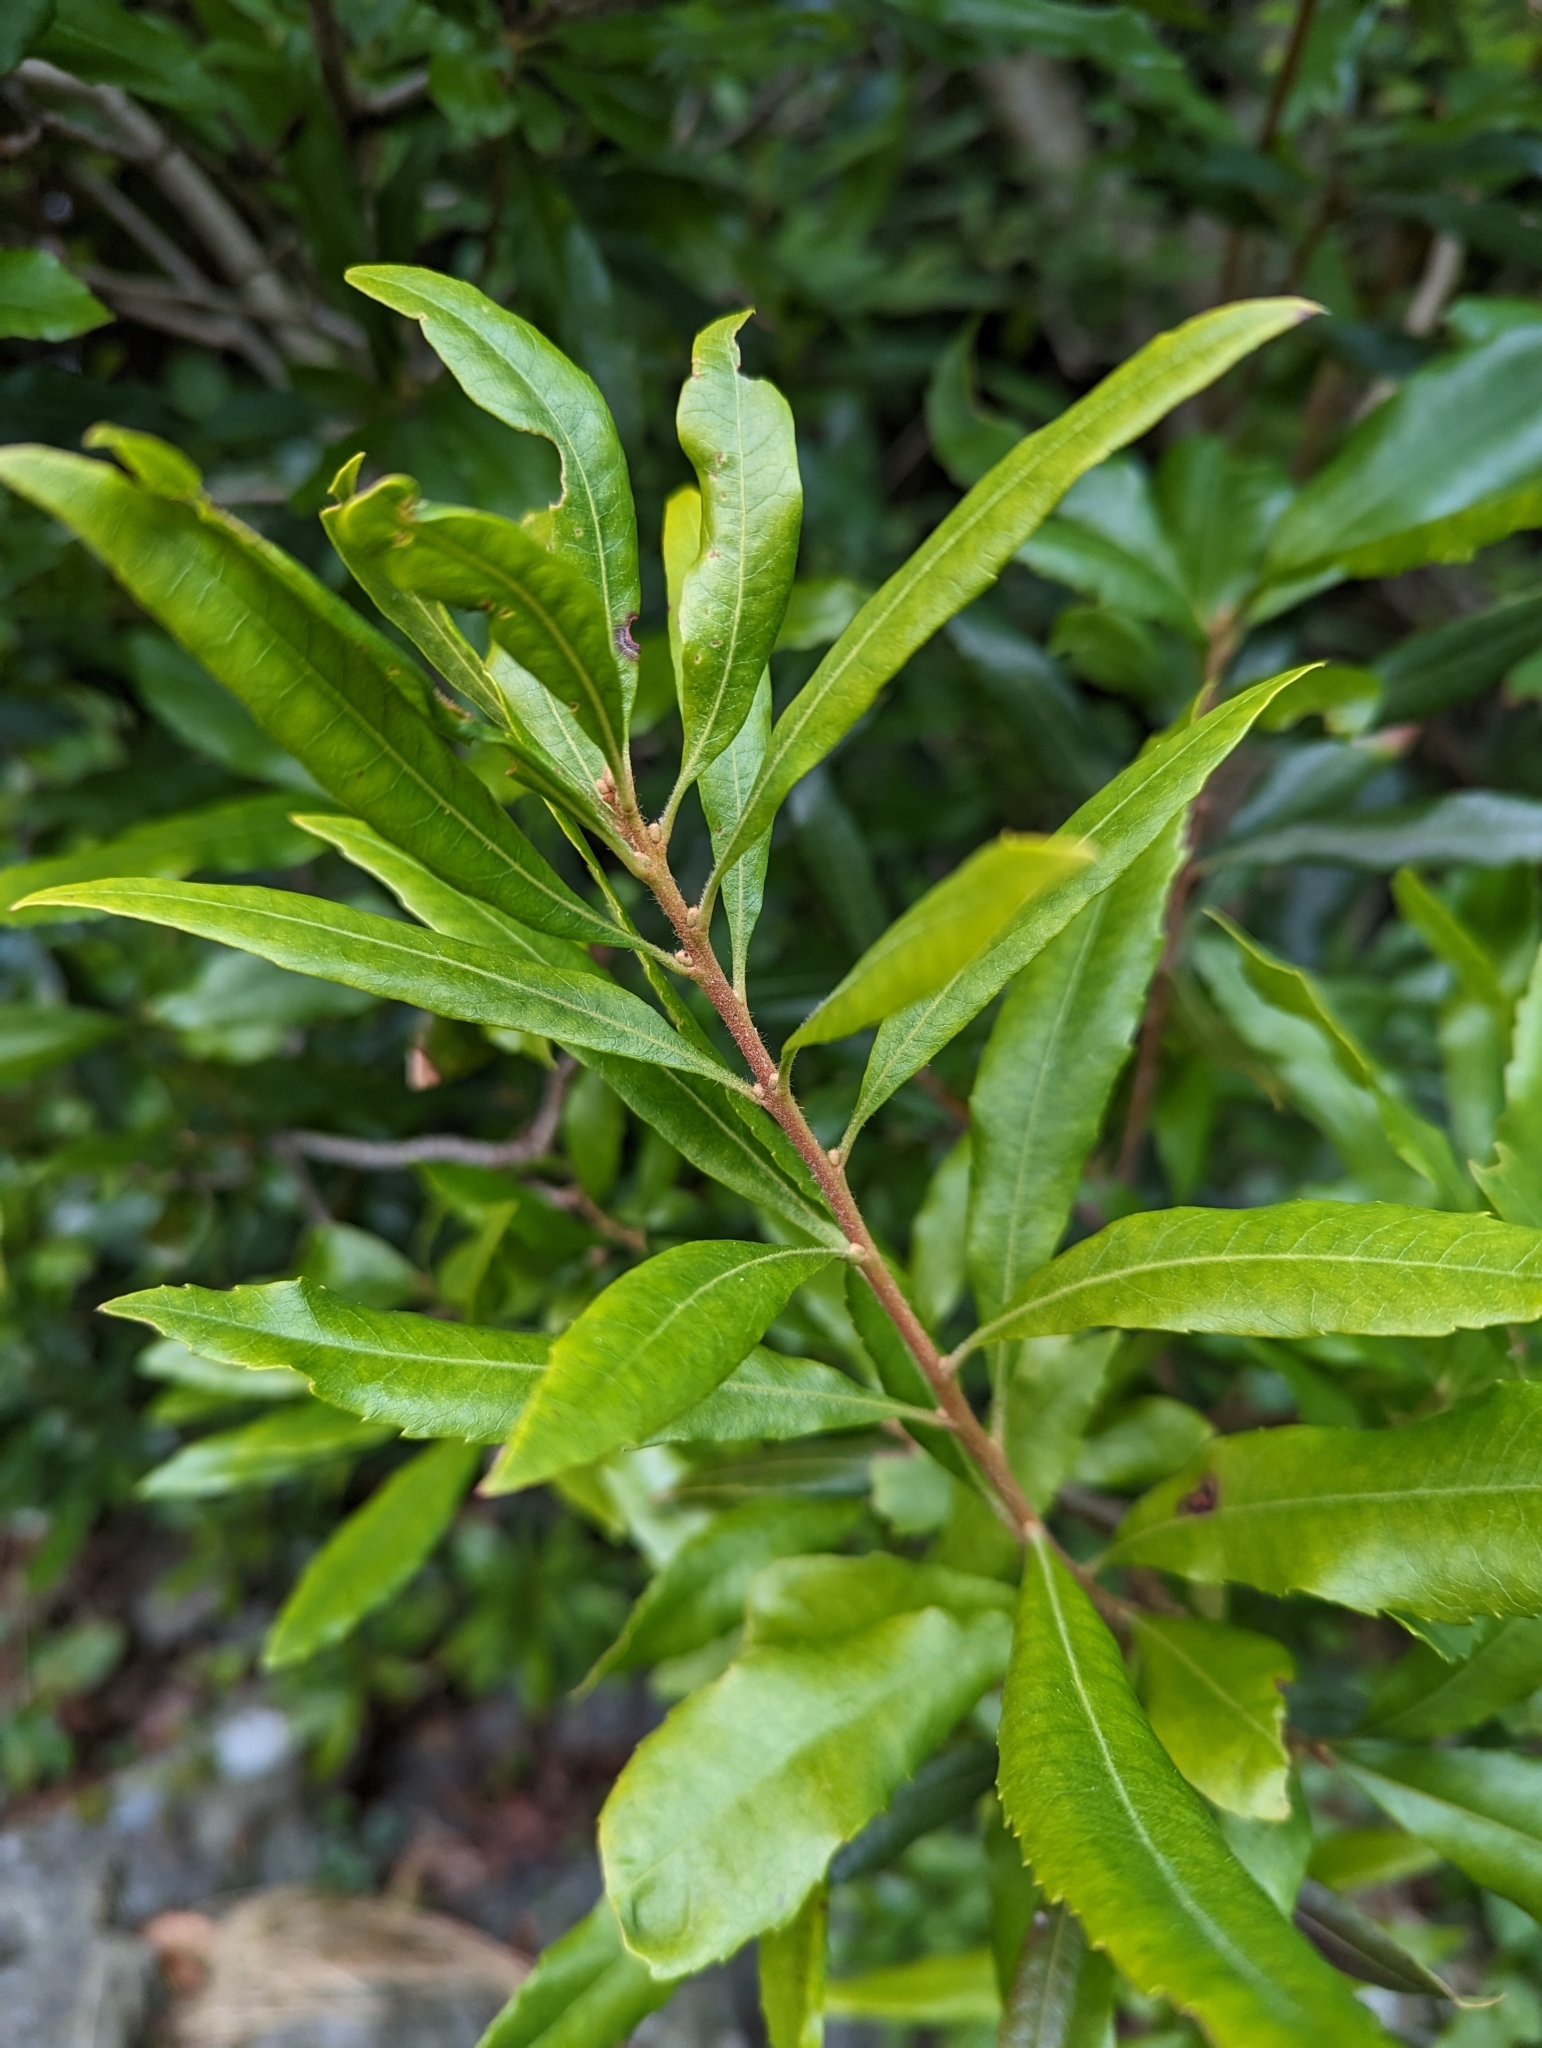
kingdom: Plantae
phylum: Tracheophyta
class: Magnoliopsida
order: Fagales
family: Myricaceae
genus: Morella
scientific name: Morella californica
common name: California wax-myrtle
